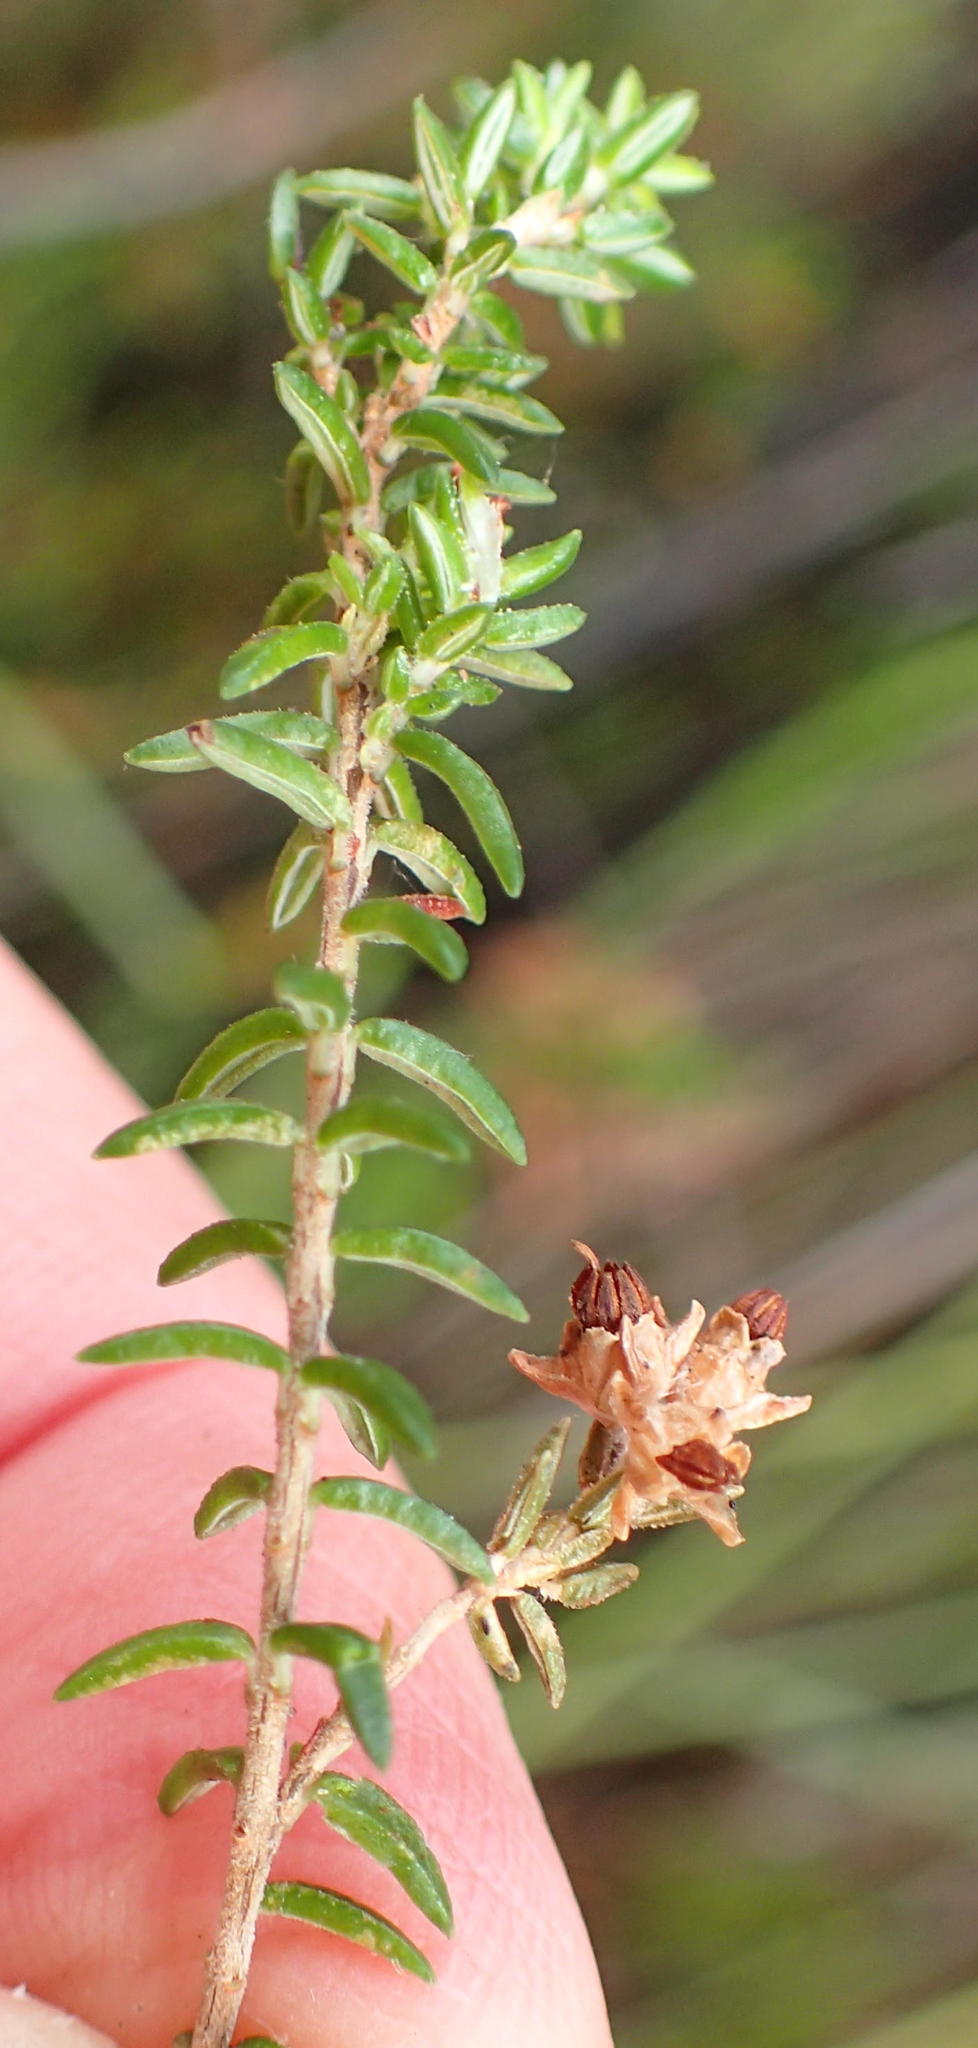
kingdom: Plantae
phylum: Tracheophyta
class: Magnoliopsida
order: Ericales
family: Ericaceae
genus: Erica
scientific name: Erica triceps
